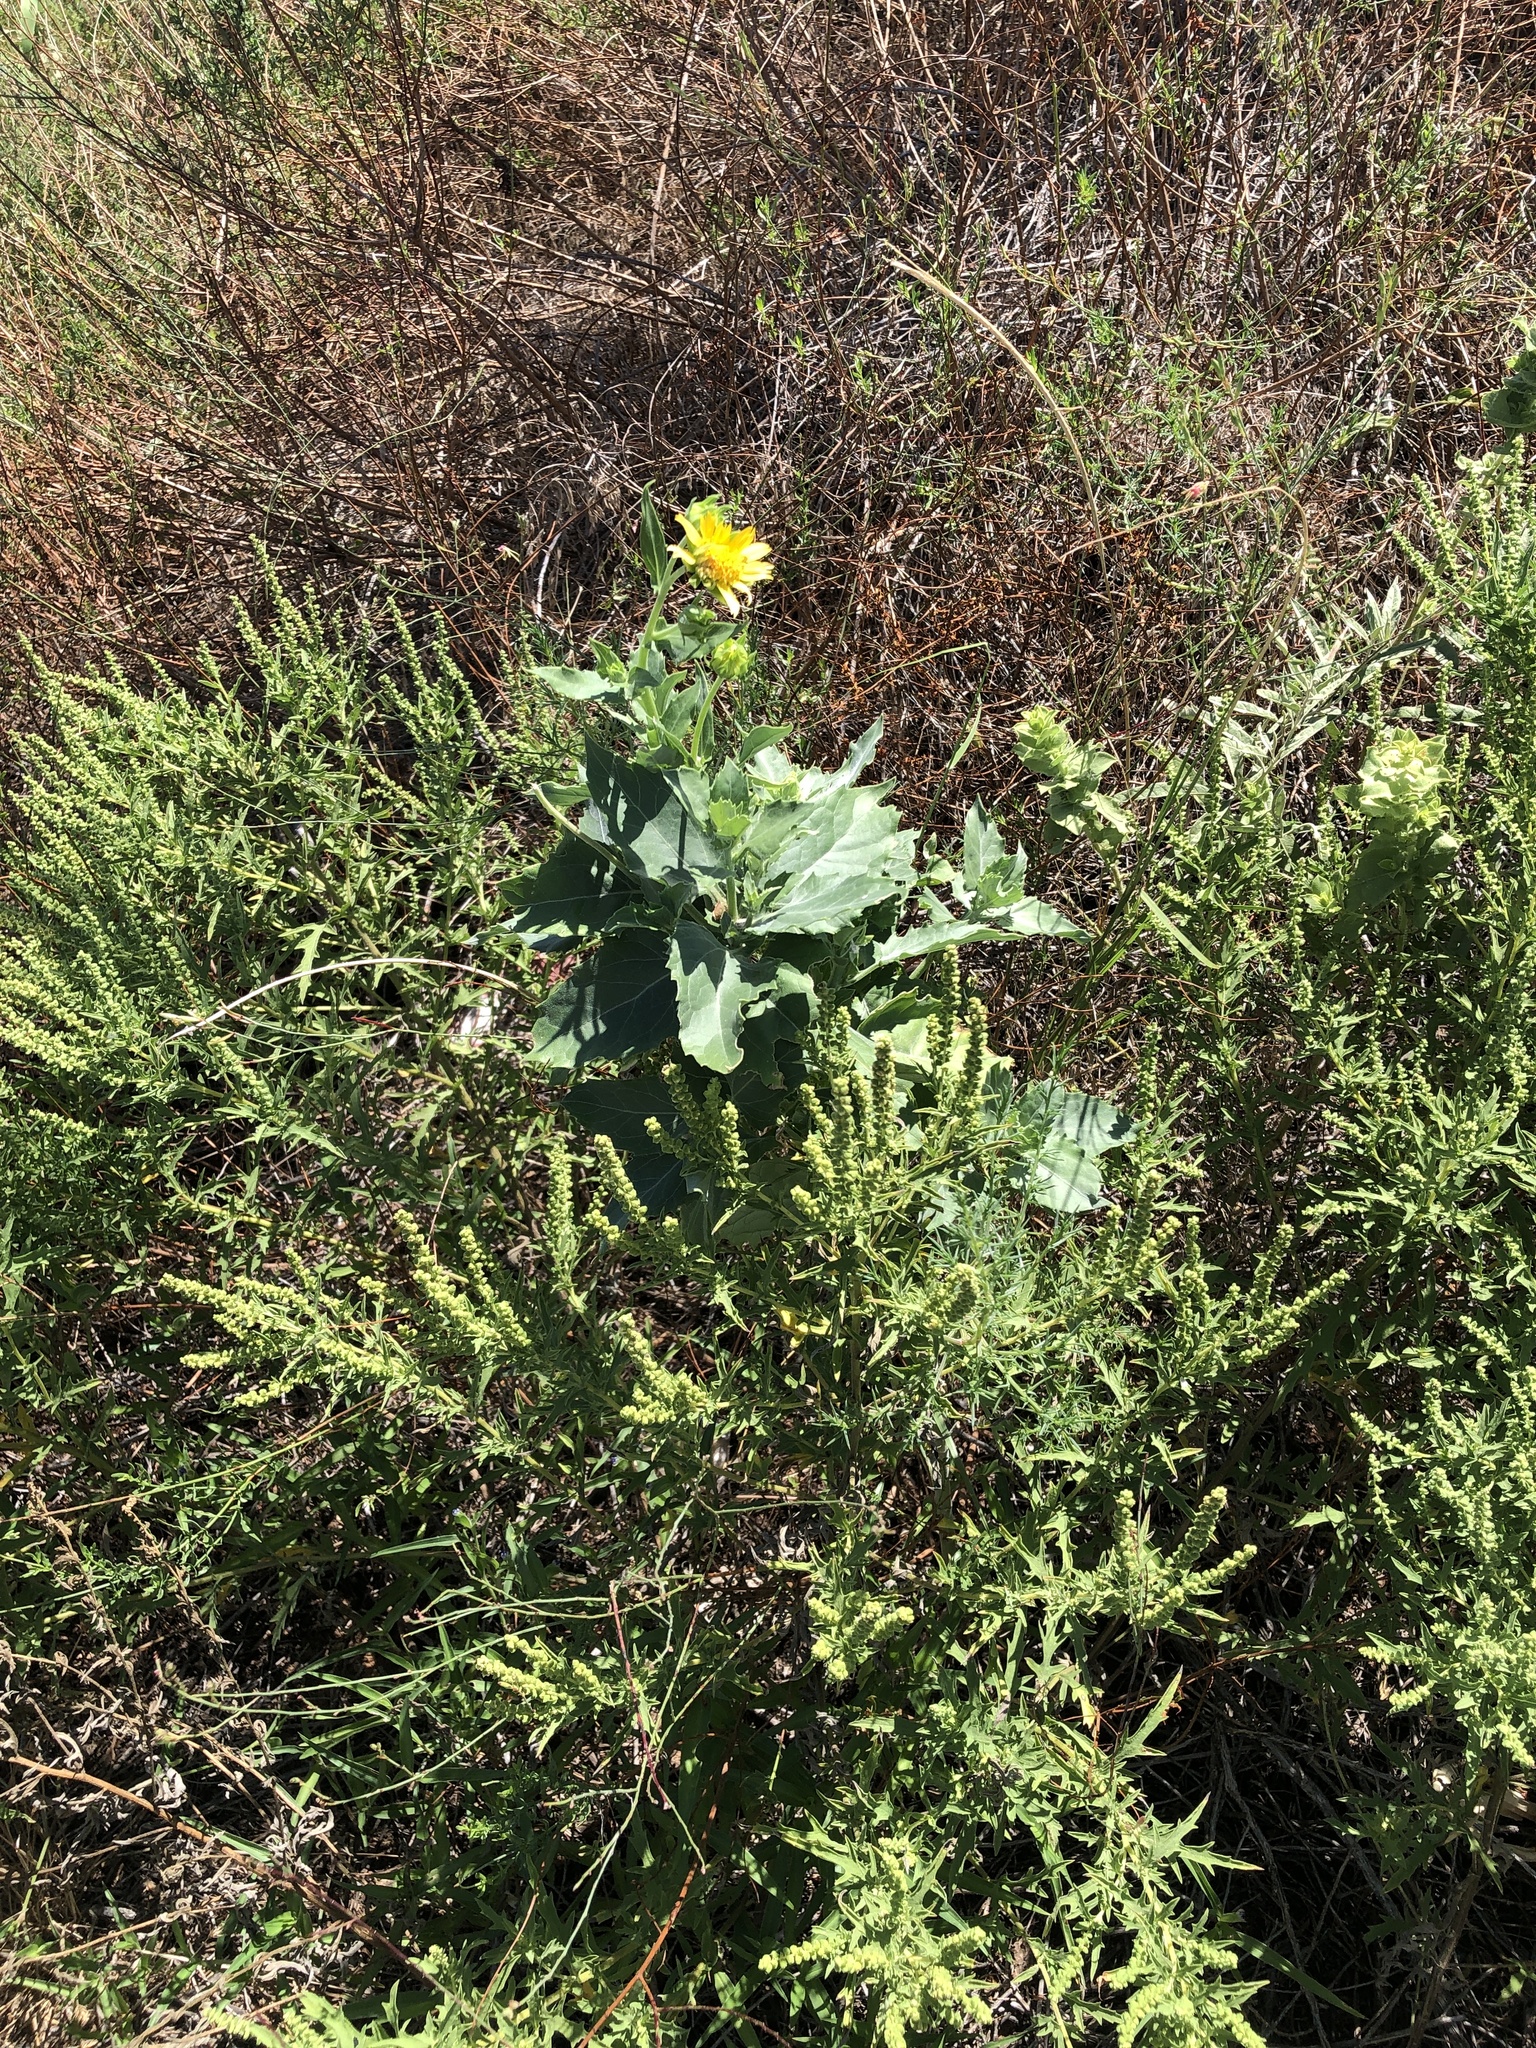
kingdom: Plantae
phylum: Tracheophyta
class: Magnoliopsida
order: Asterales
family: Asteraceae
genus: Verbesina
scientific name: Verbesina encelioides
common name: Golden crownbeard
